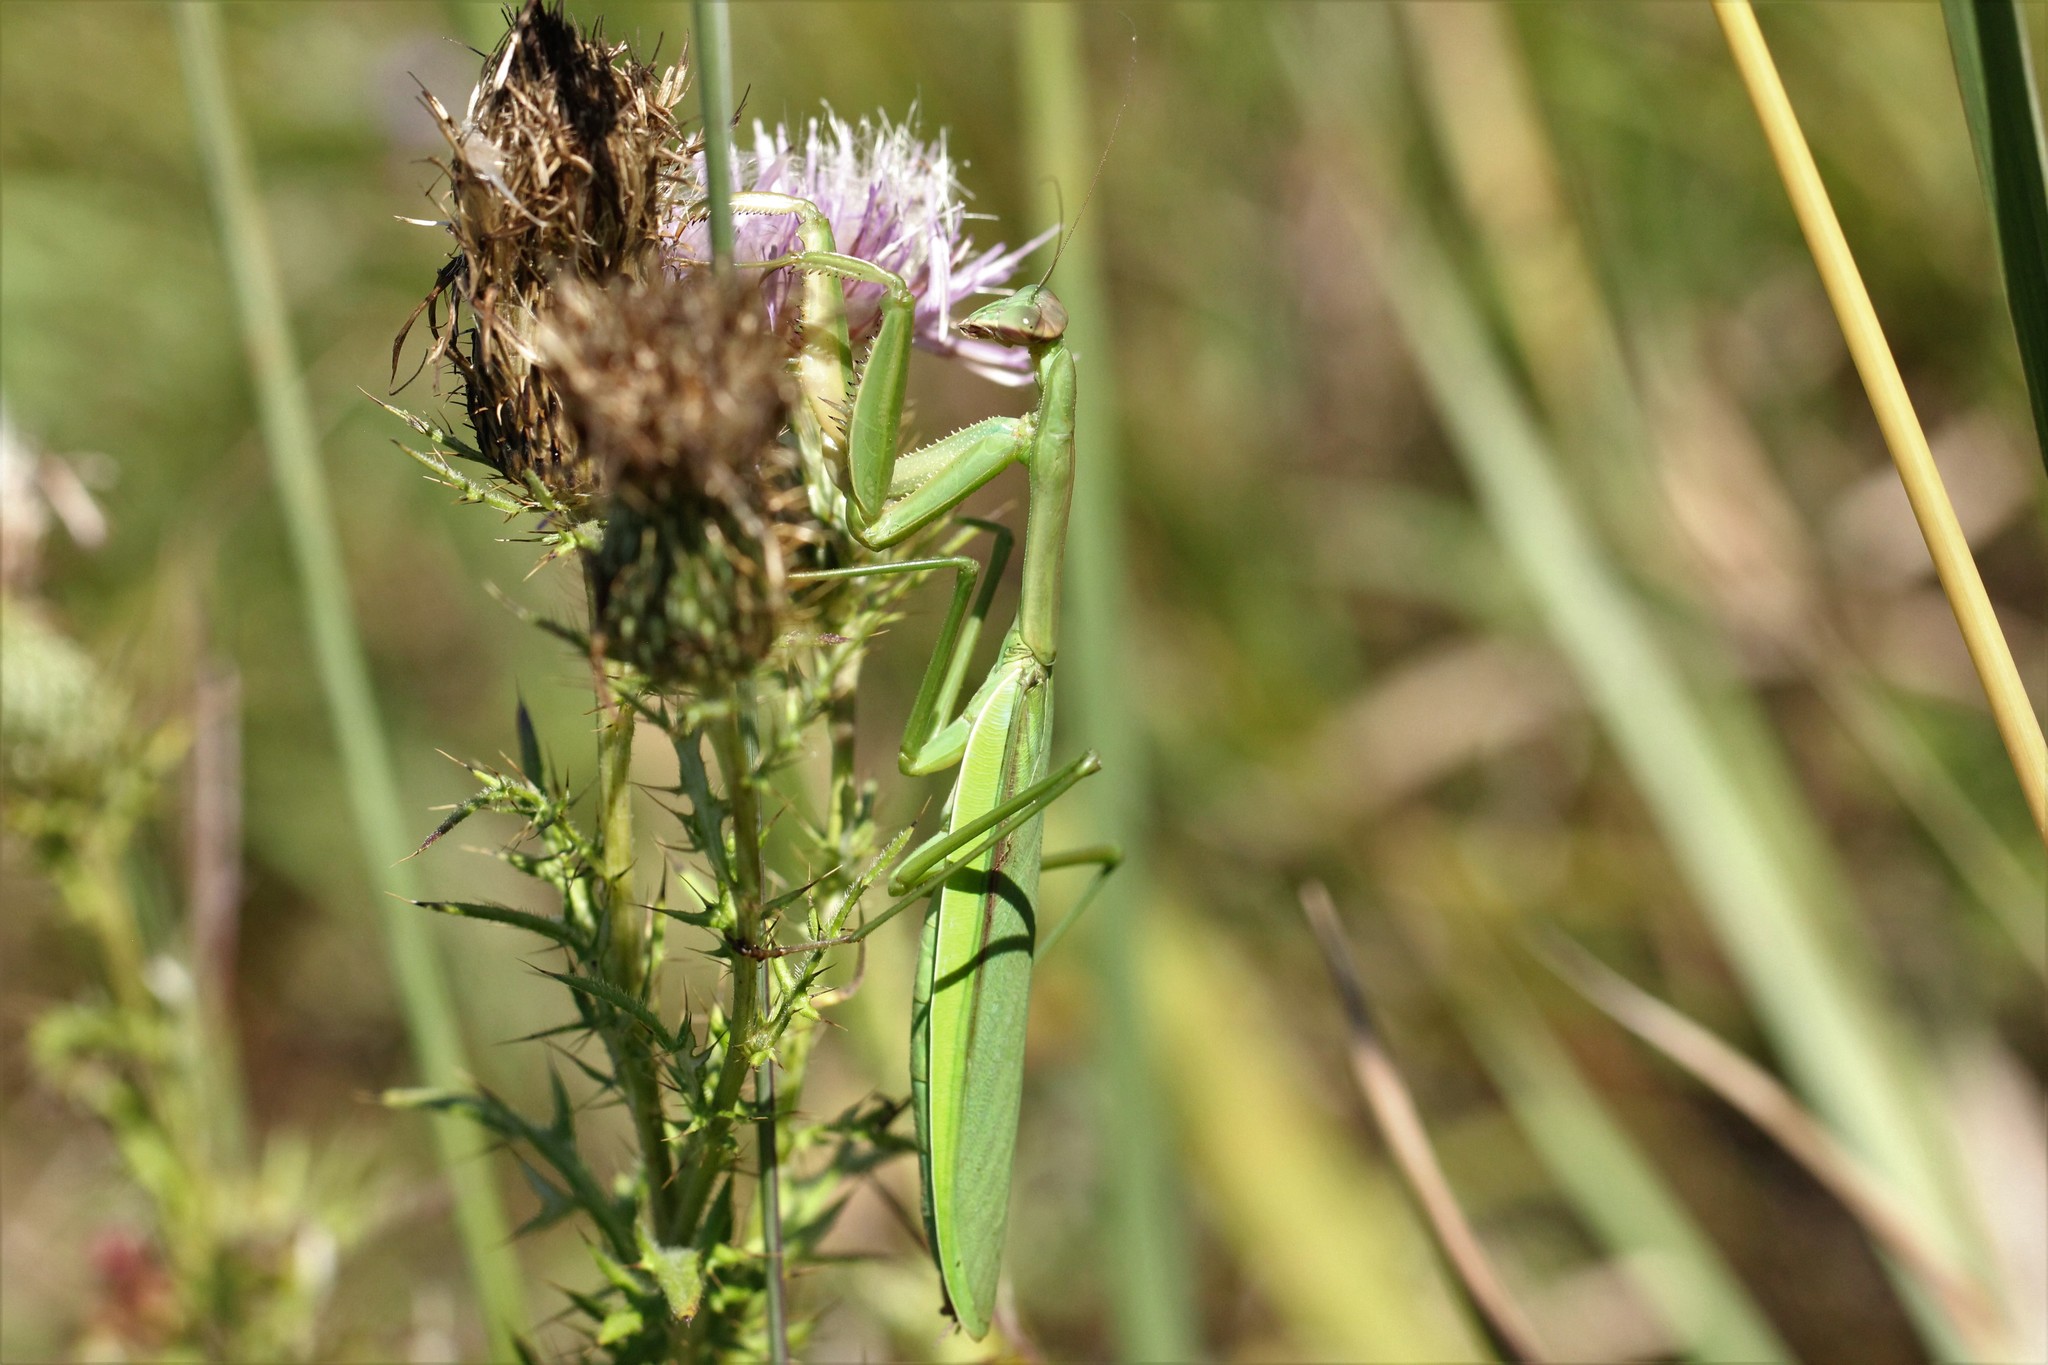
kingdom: Animalia
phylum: Arthropoda
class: Insecta
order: Mantodea
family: Mantidae
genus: Tenodera
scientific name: Tenodera sinensis
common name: Chinese mantis
